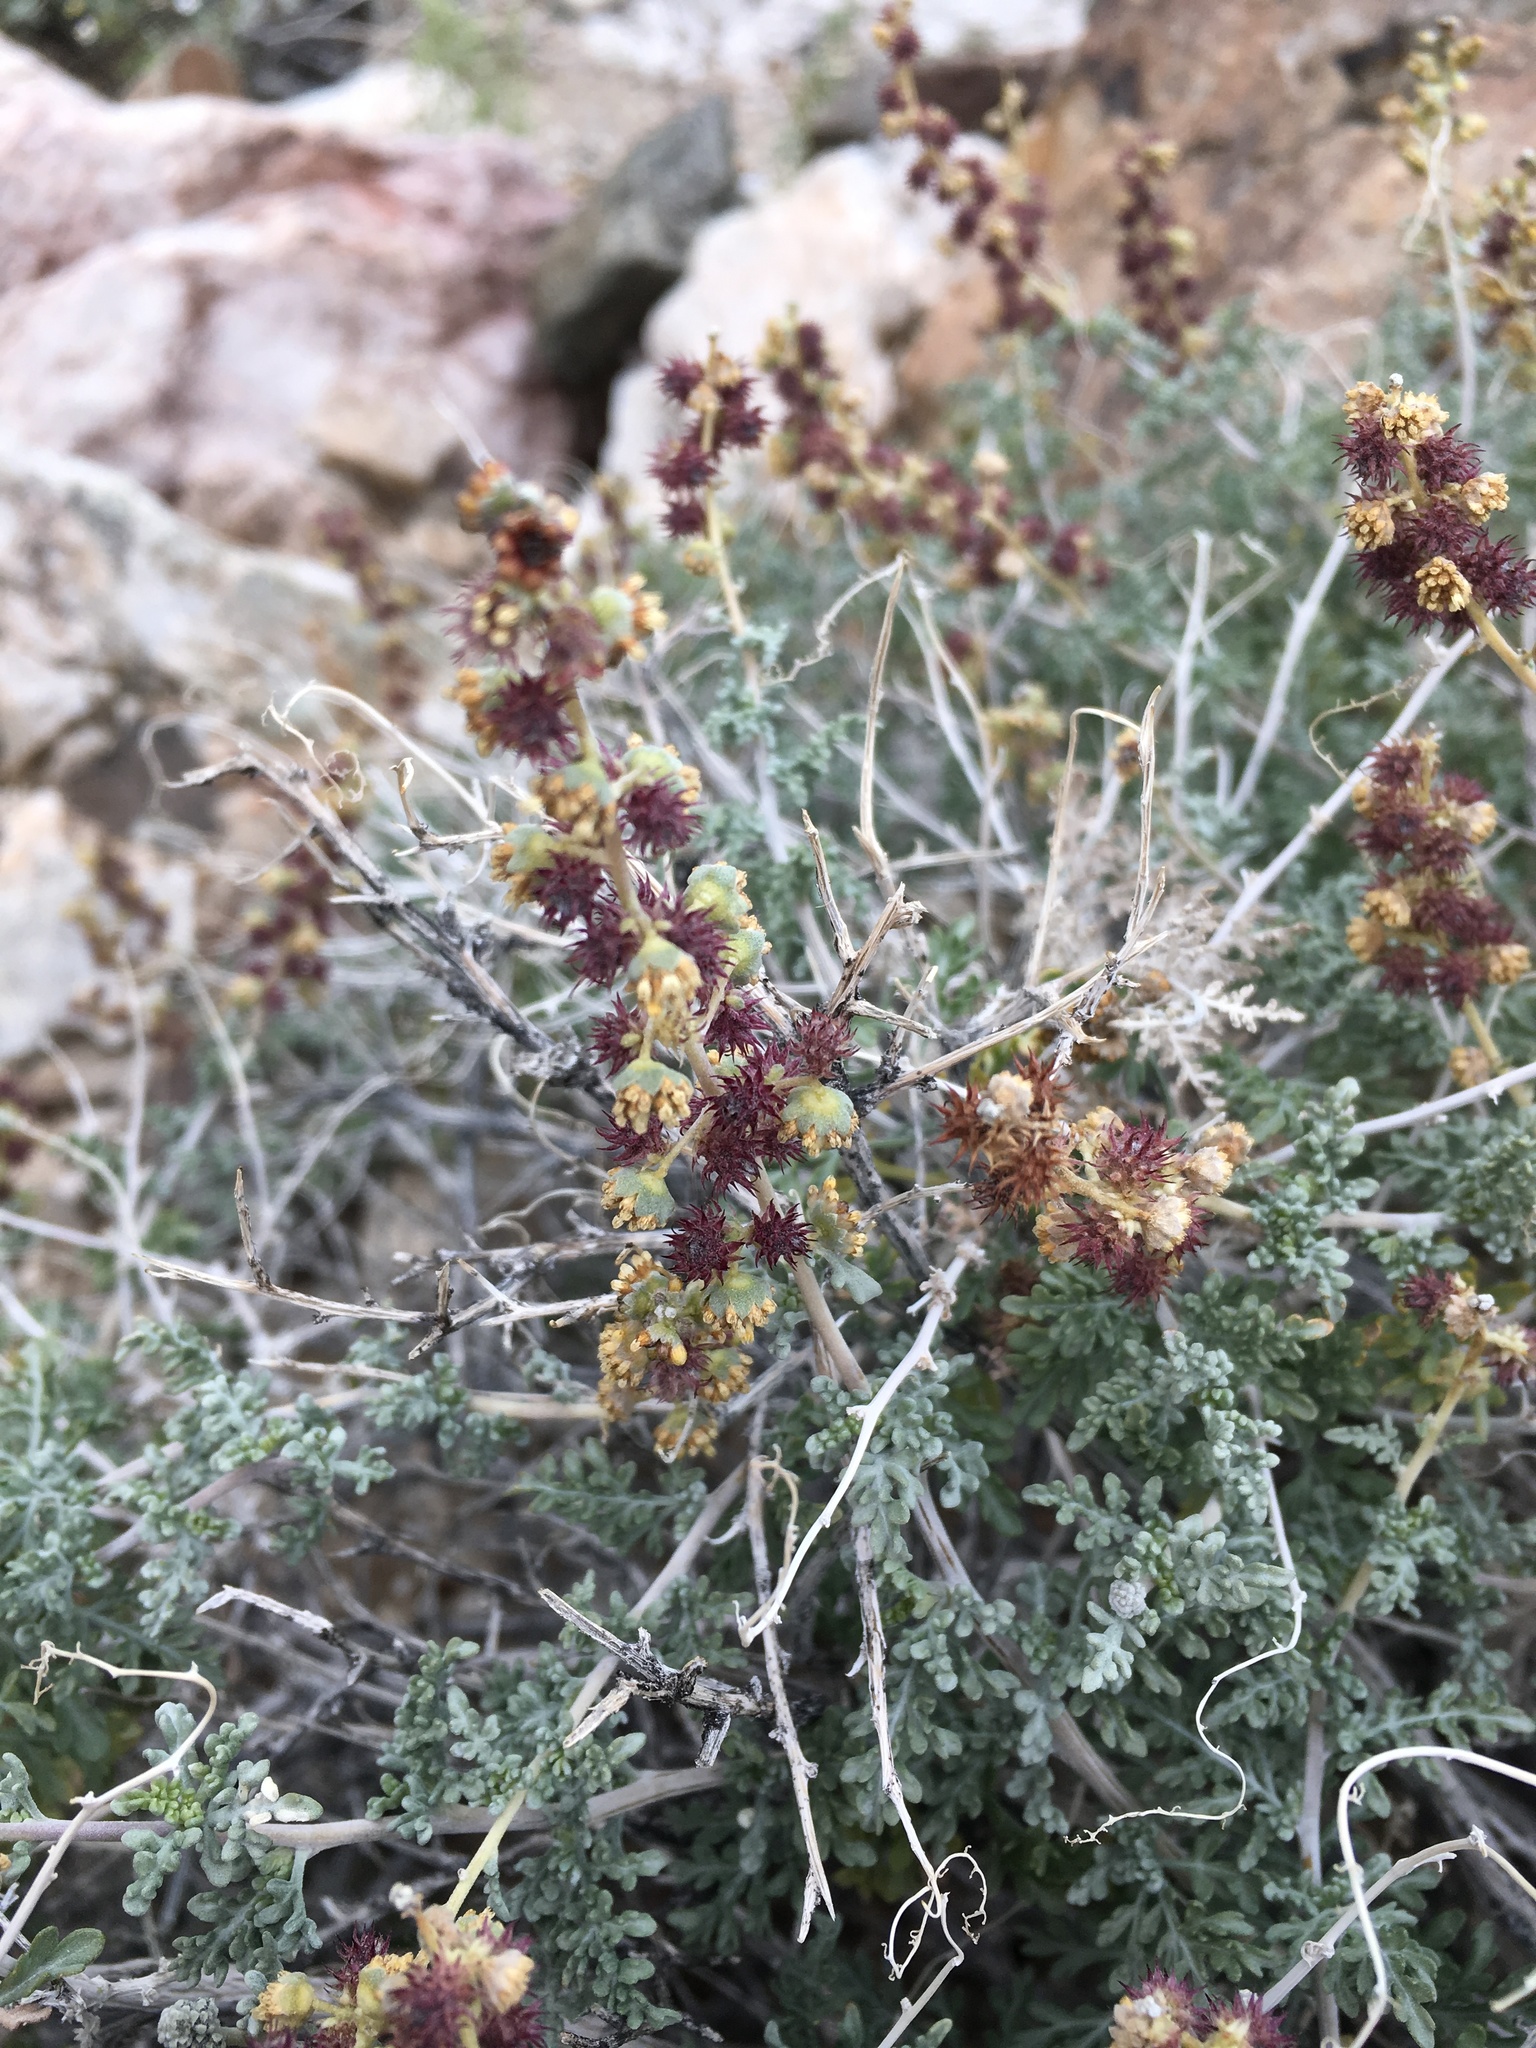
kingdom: Plantae
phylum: Tracheophyta
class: Magnoliopsida
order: Asterales
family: Asteraceae
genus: Ambrosia
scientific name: Ambrosia dumosa
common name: Bur-sage
